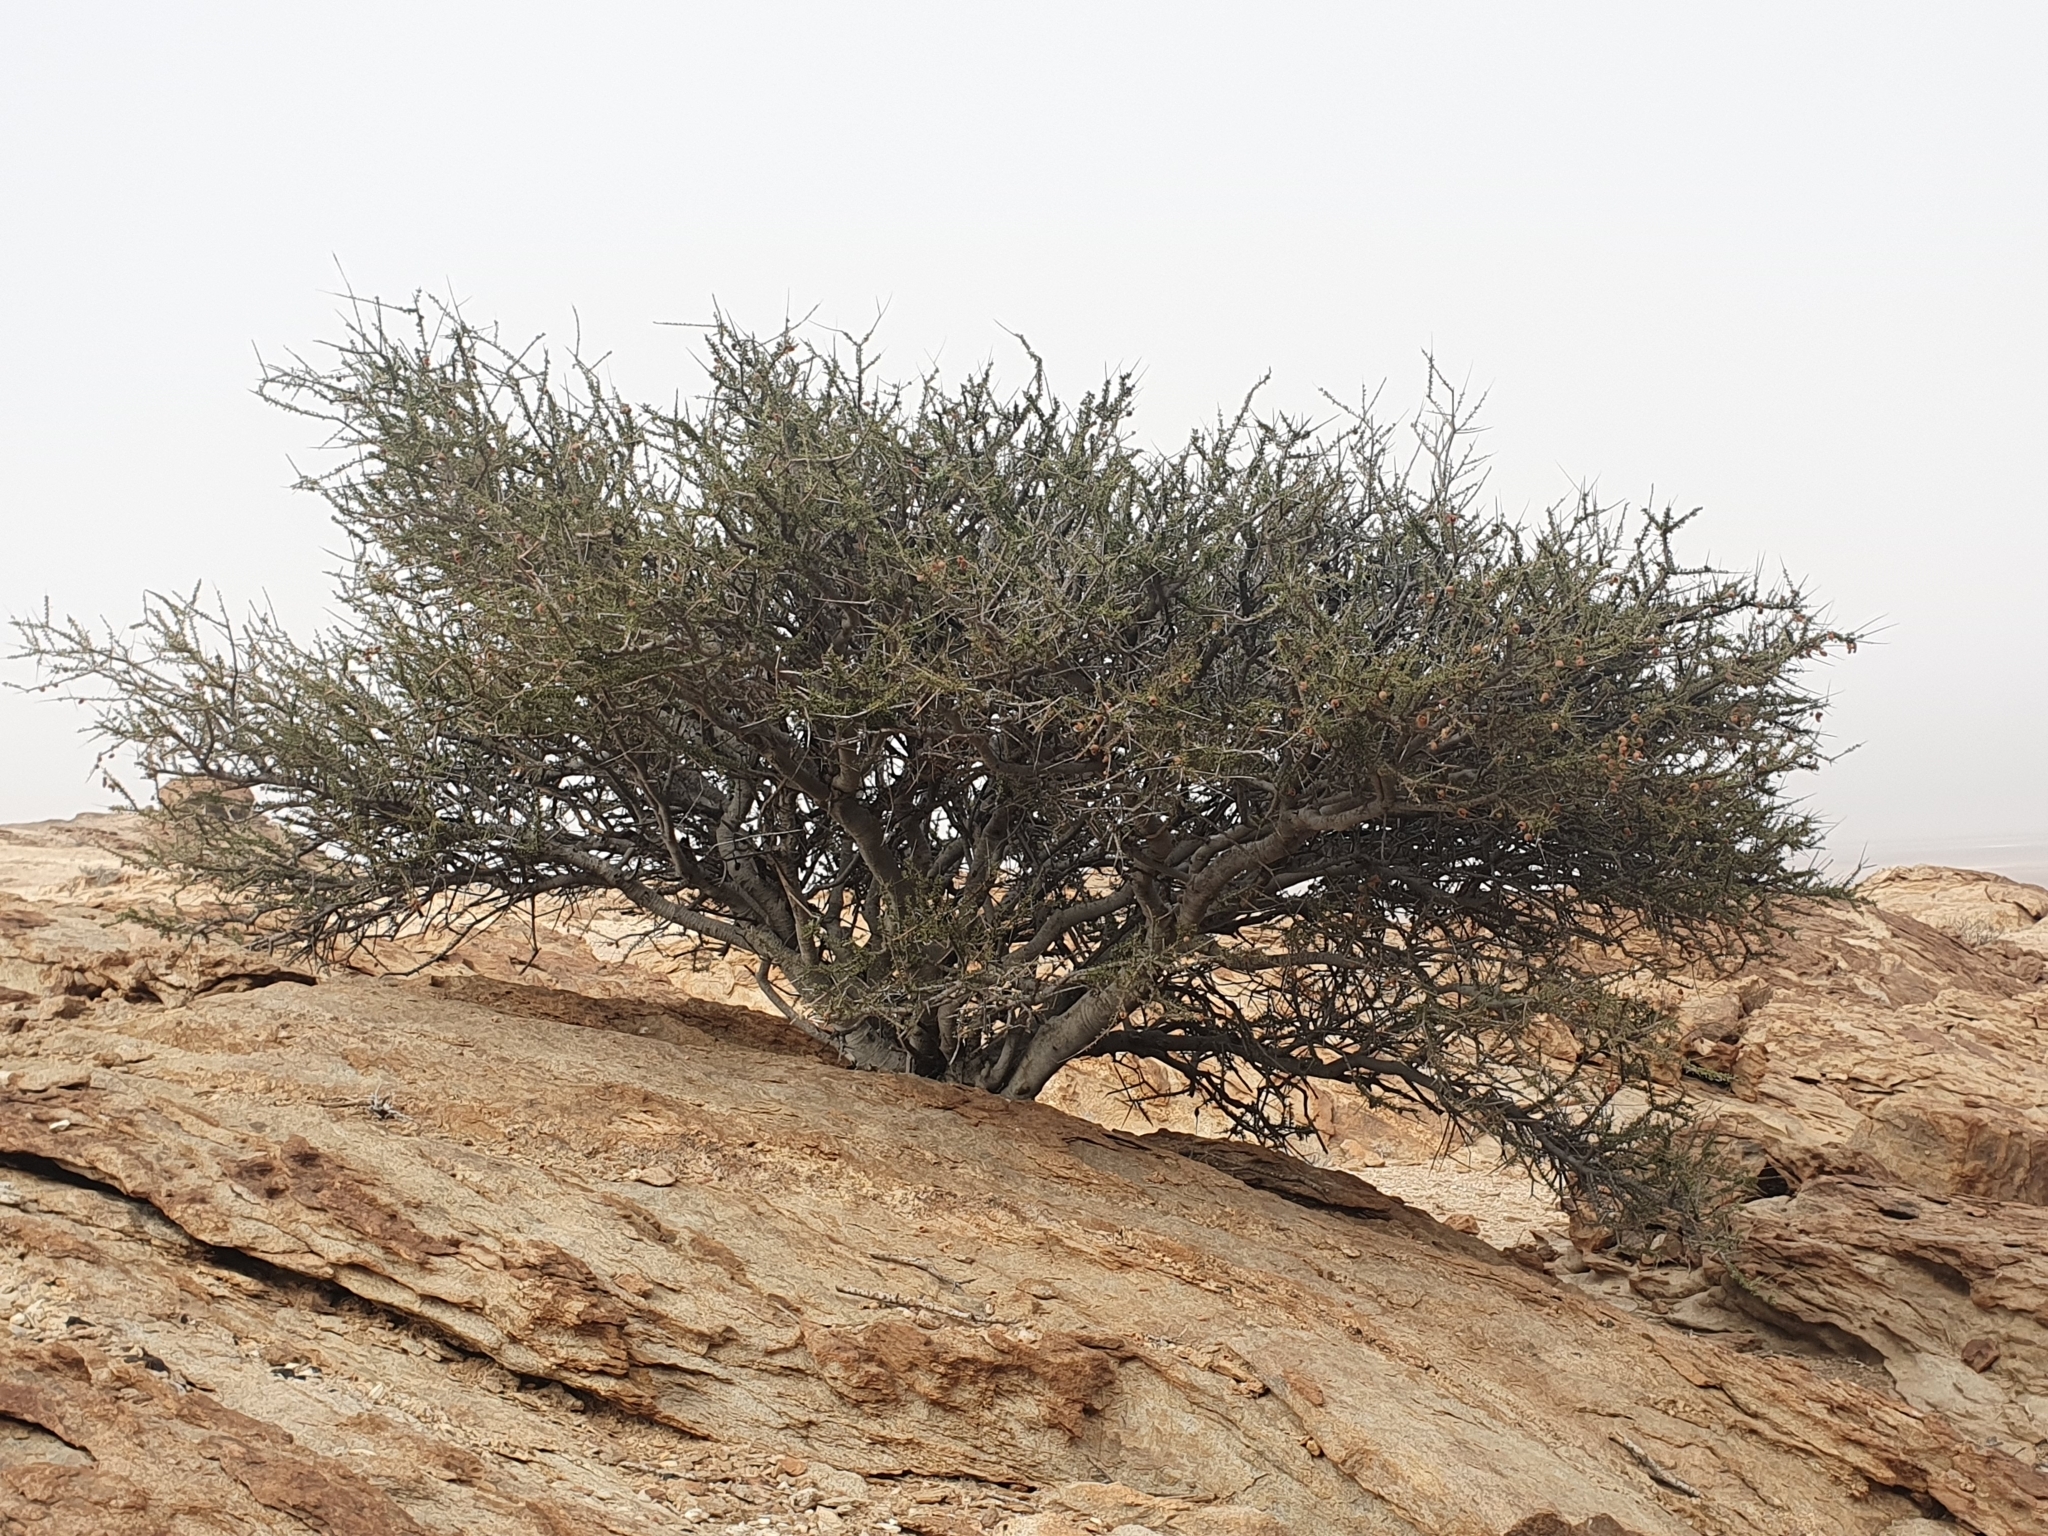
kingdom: Plantae
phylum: Tracheophyta
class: Magnoliopsida
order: Brassicales
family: Capparaceae
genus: Boscia
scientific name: Boscia foetida
